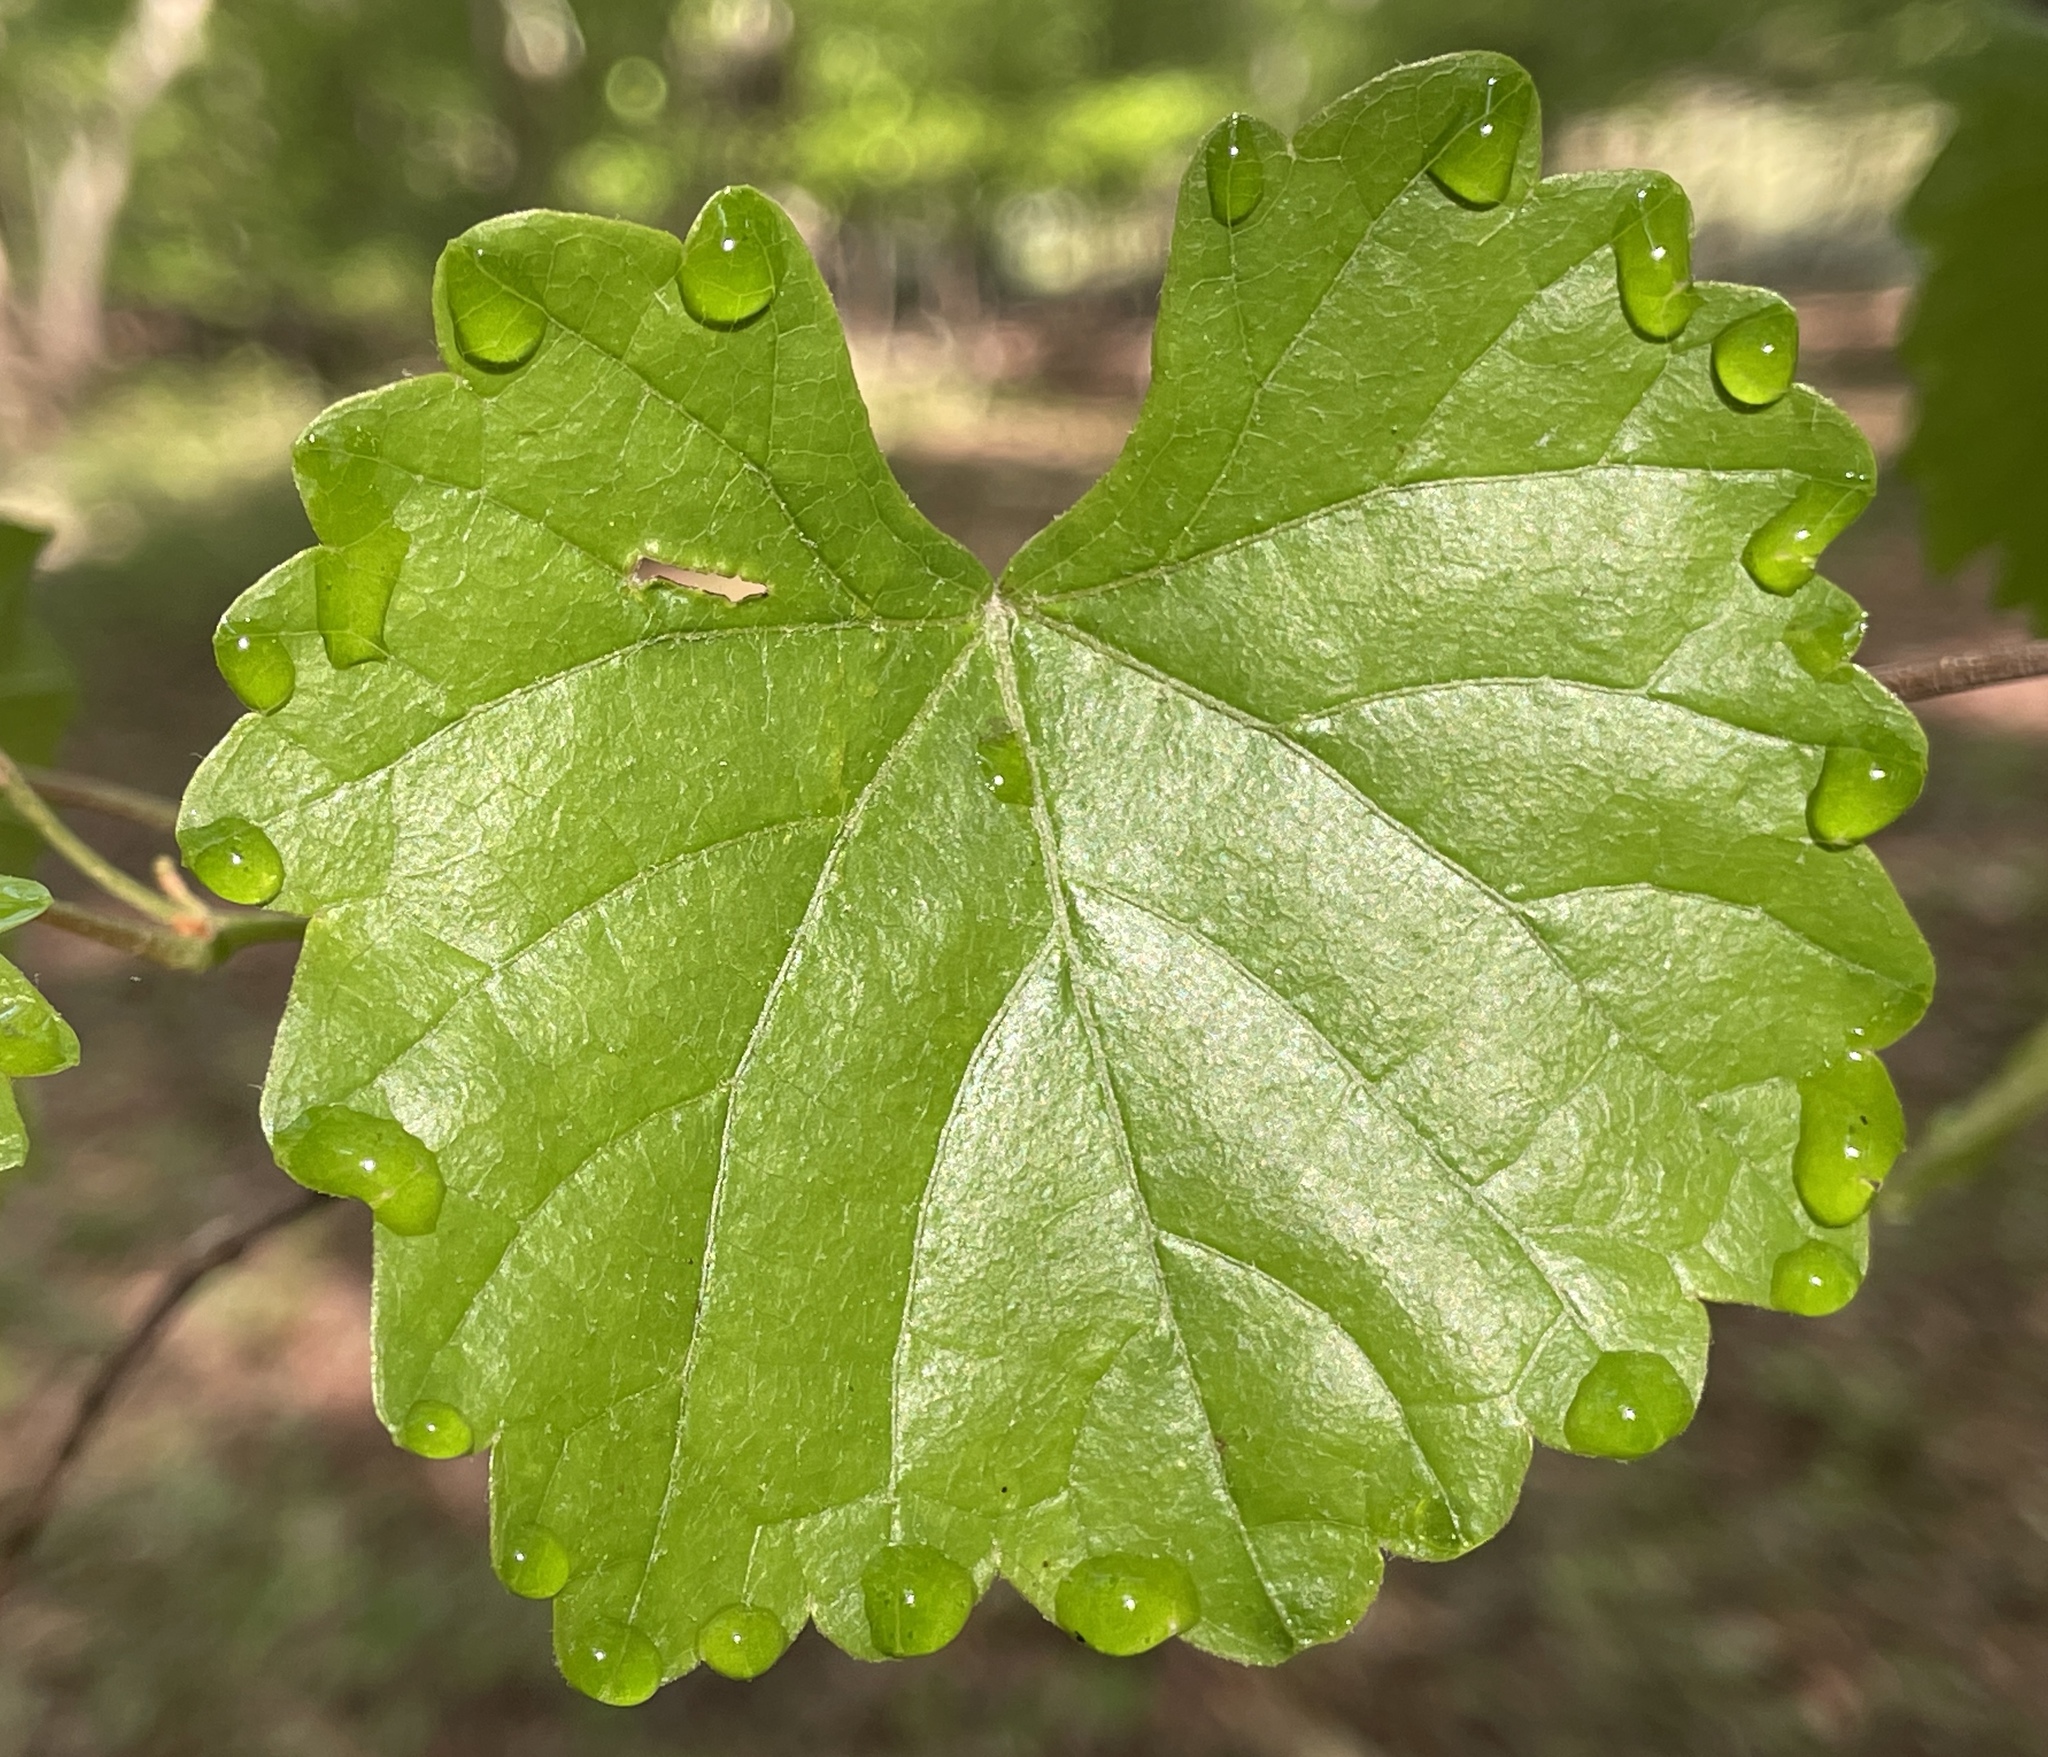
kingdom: Plantae
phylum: Tracheophyta
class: Magnoliopsida
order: Vitales
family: Vitaceae
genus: Vitis
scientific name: Vitis rotundifolia
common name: Muscadine grape
